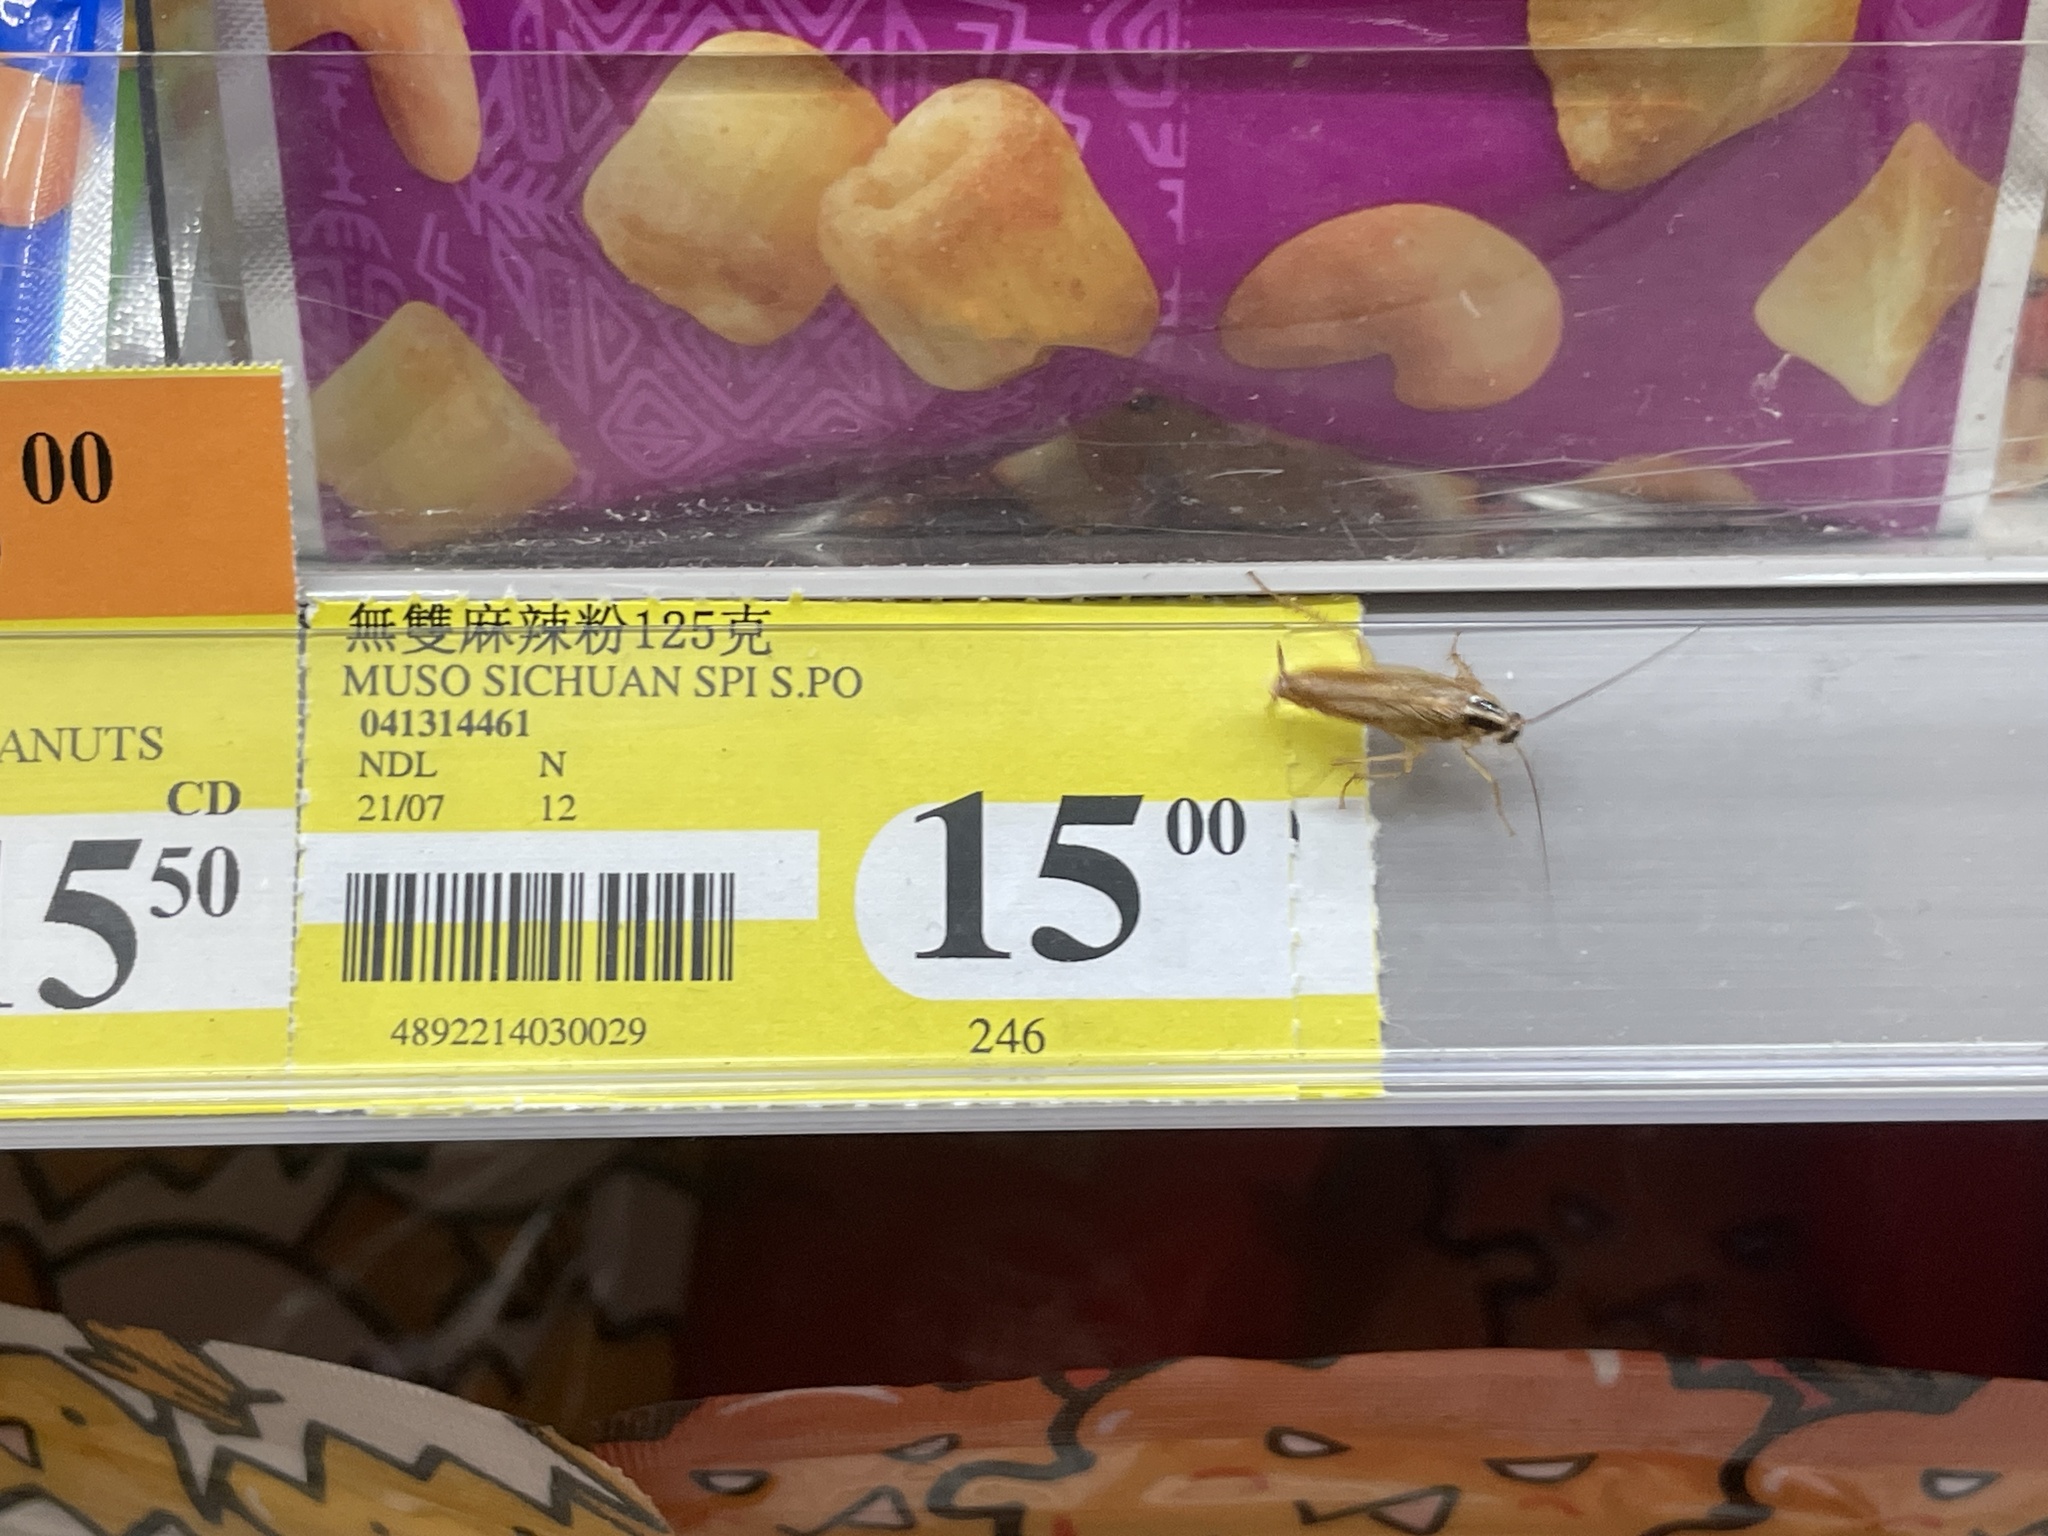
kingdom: Animalia
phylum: Arthropoda
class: Insecta
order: Blattodea
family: Ectobiidae
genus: Blattella
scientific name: Blattella germanica
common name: German cockroach
